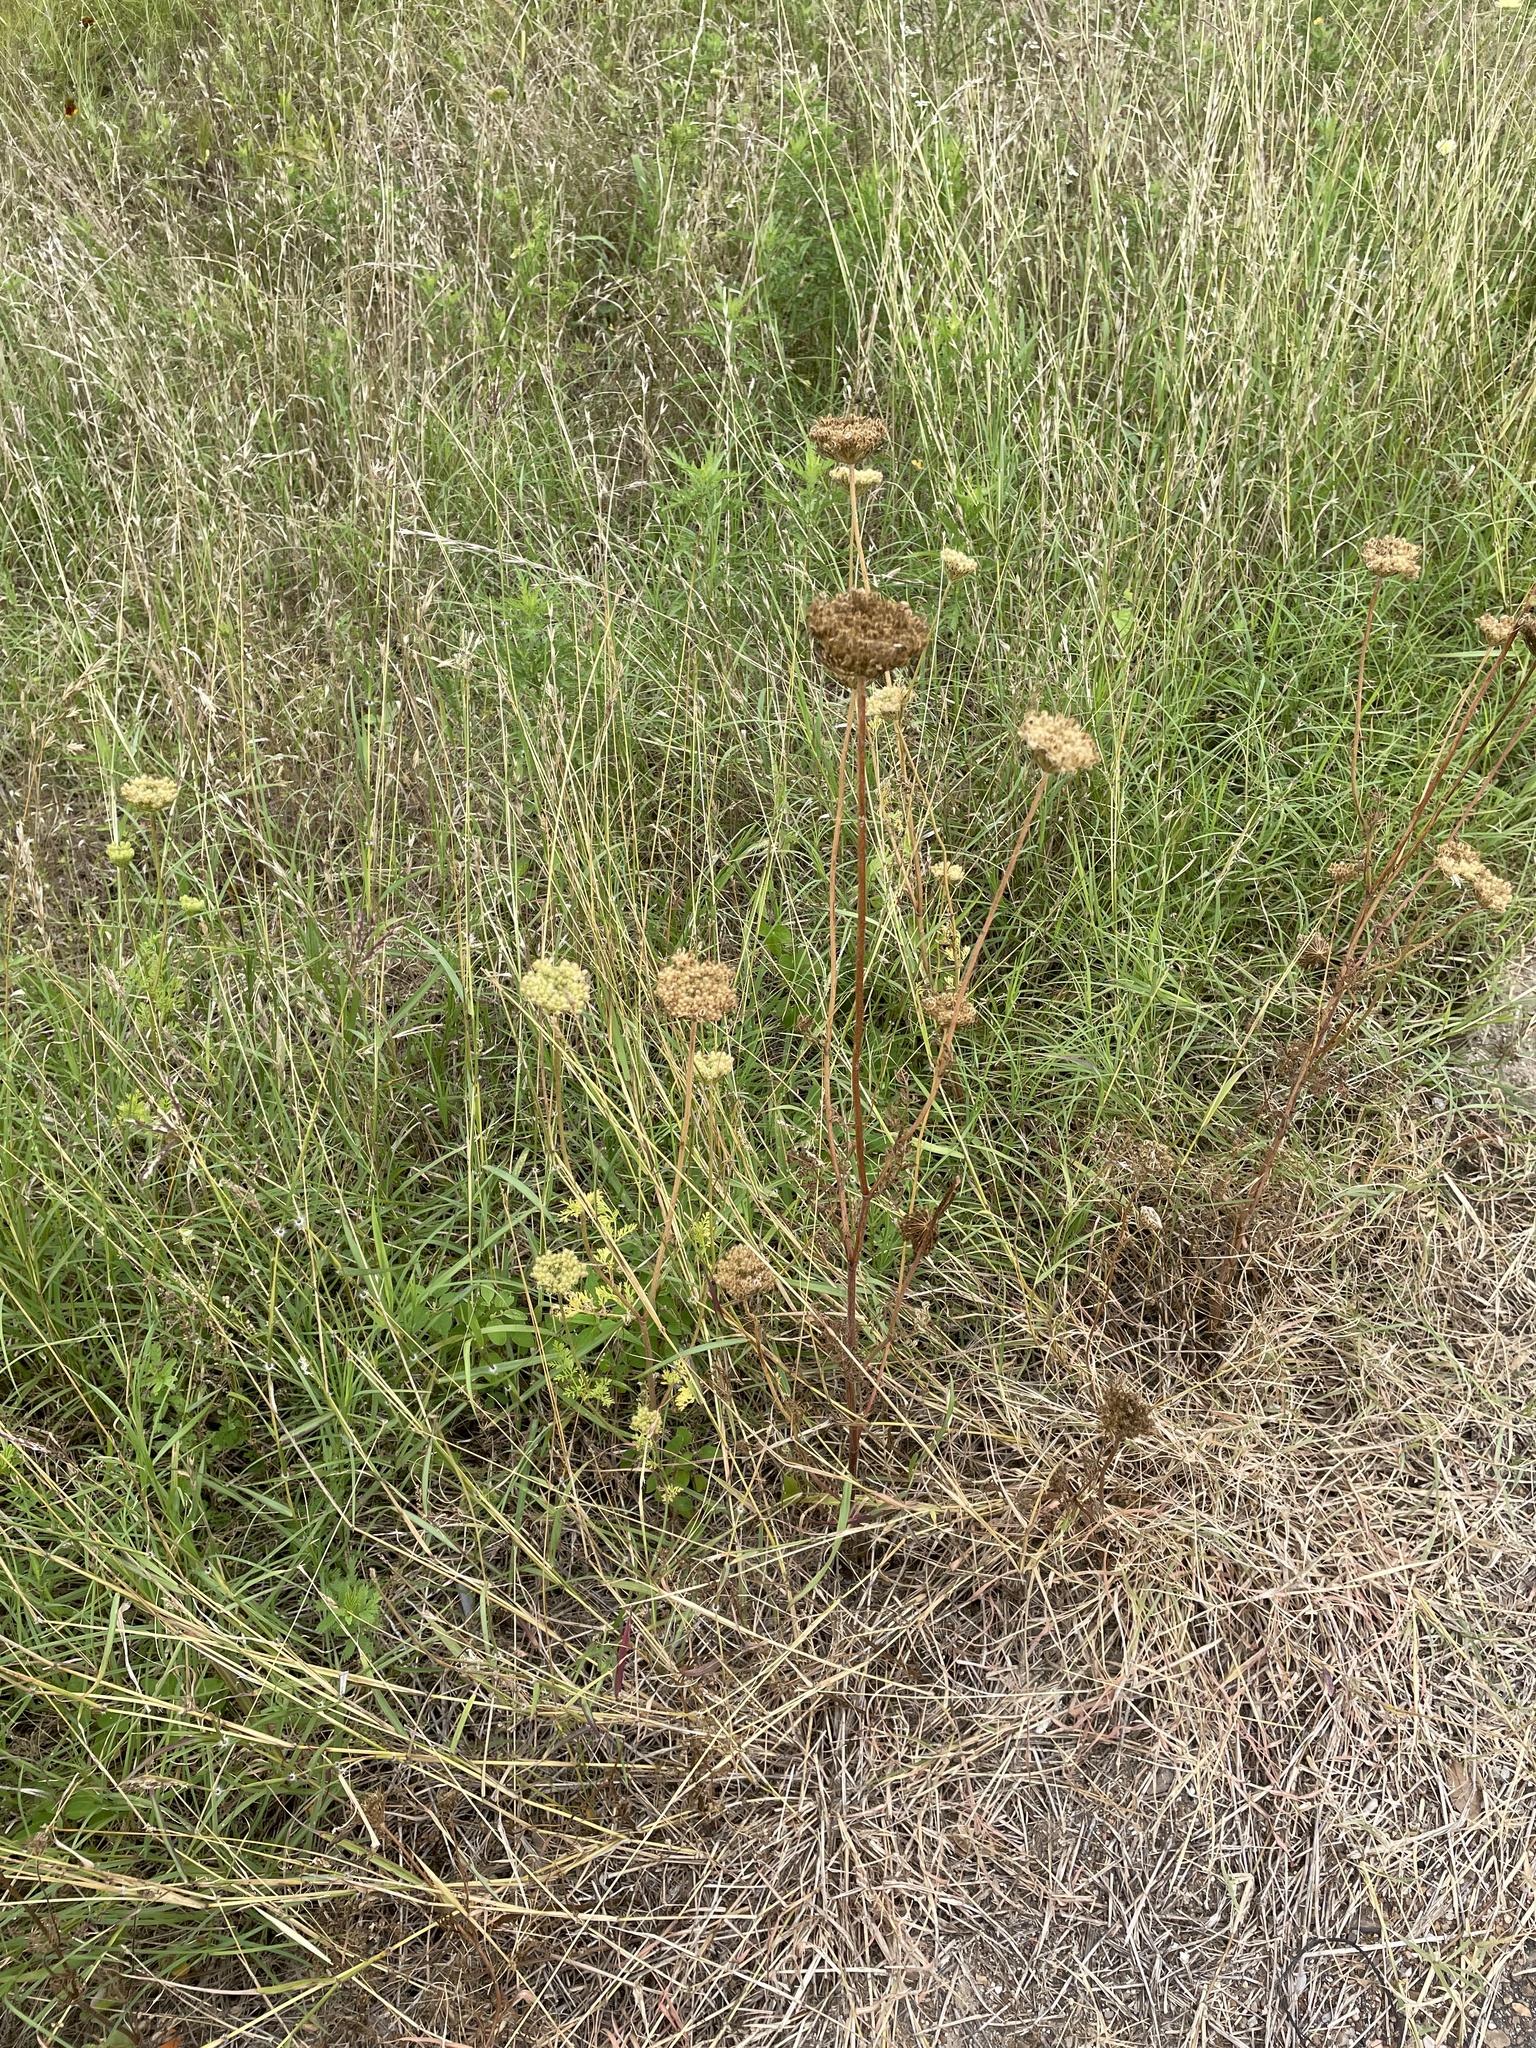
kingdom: Plantae
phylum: Tracheophyta
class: Magnoliopsida
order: Apiales
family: Apiaceae
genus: Daucus
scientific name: Daucus pusillus
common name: Southwest wild carrot
